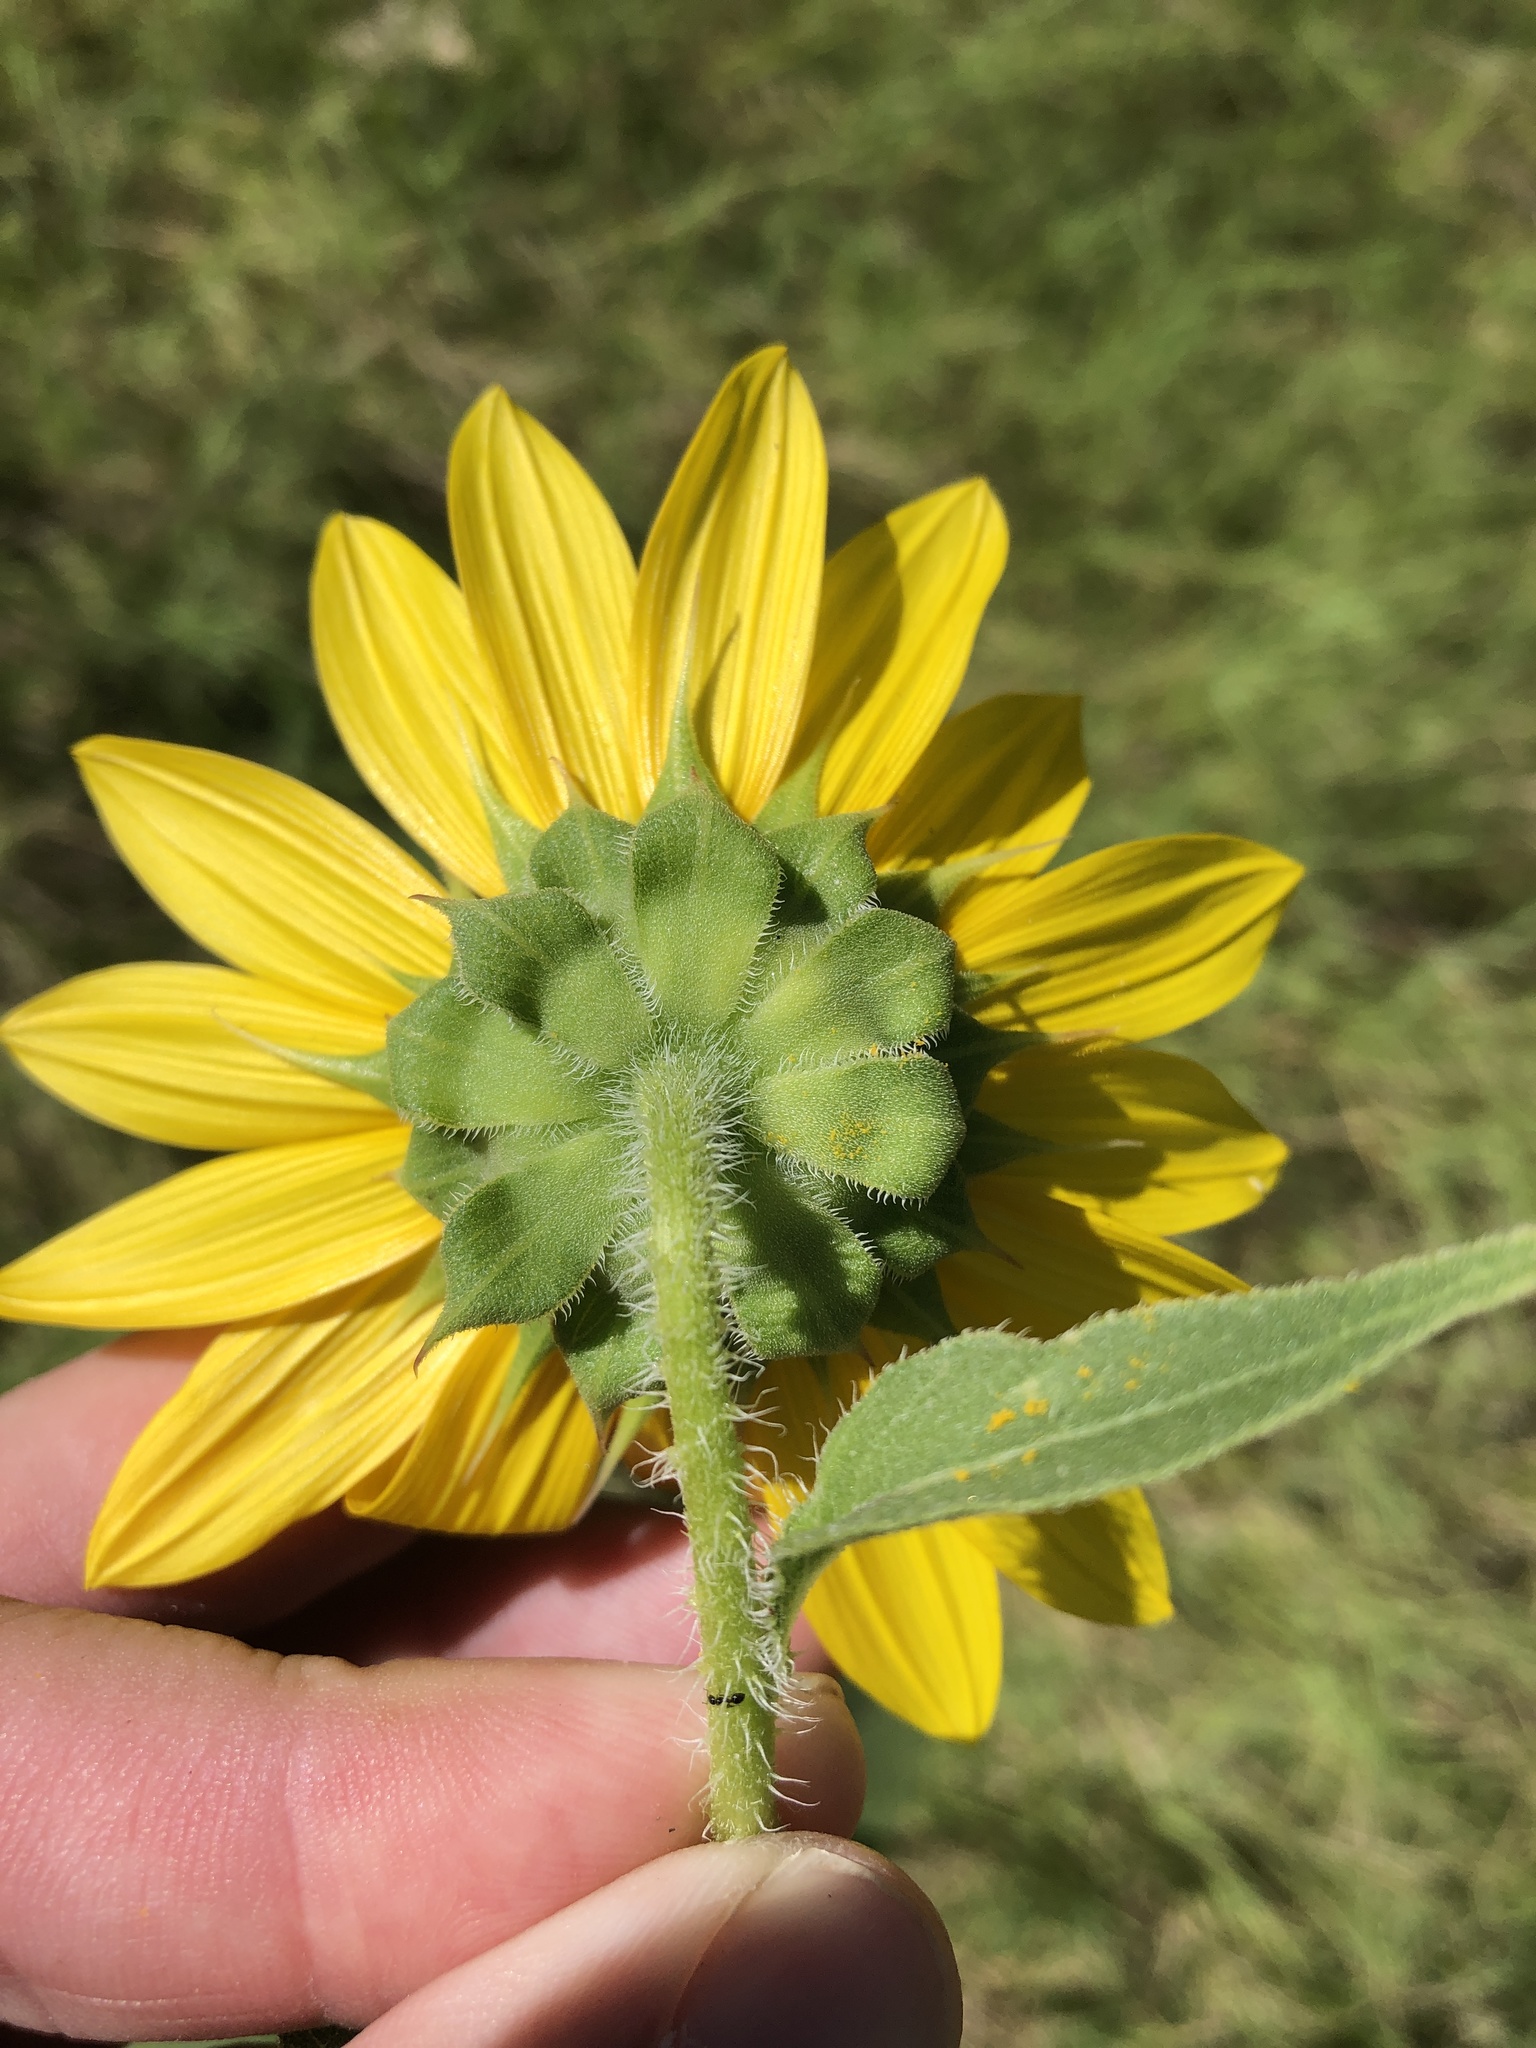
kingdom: Plantae
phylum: Tracheophyta
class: Magnoliopsida
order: Asterales
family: Asteraceae
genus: Helianthus
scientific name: Helianthus annuus
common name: Sunflower
